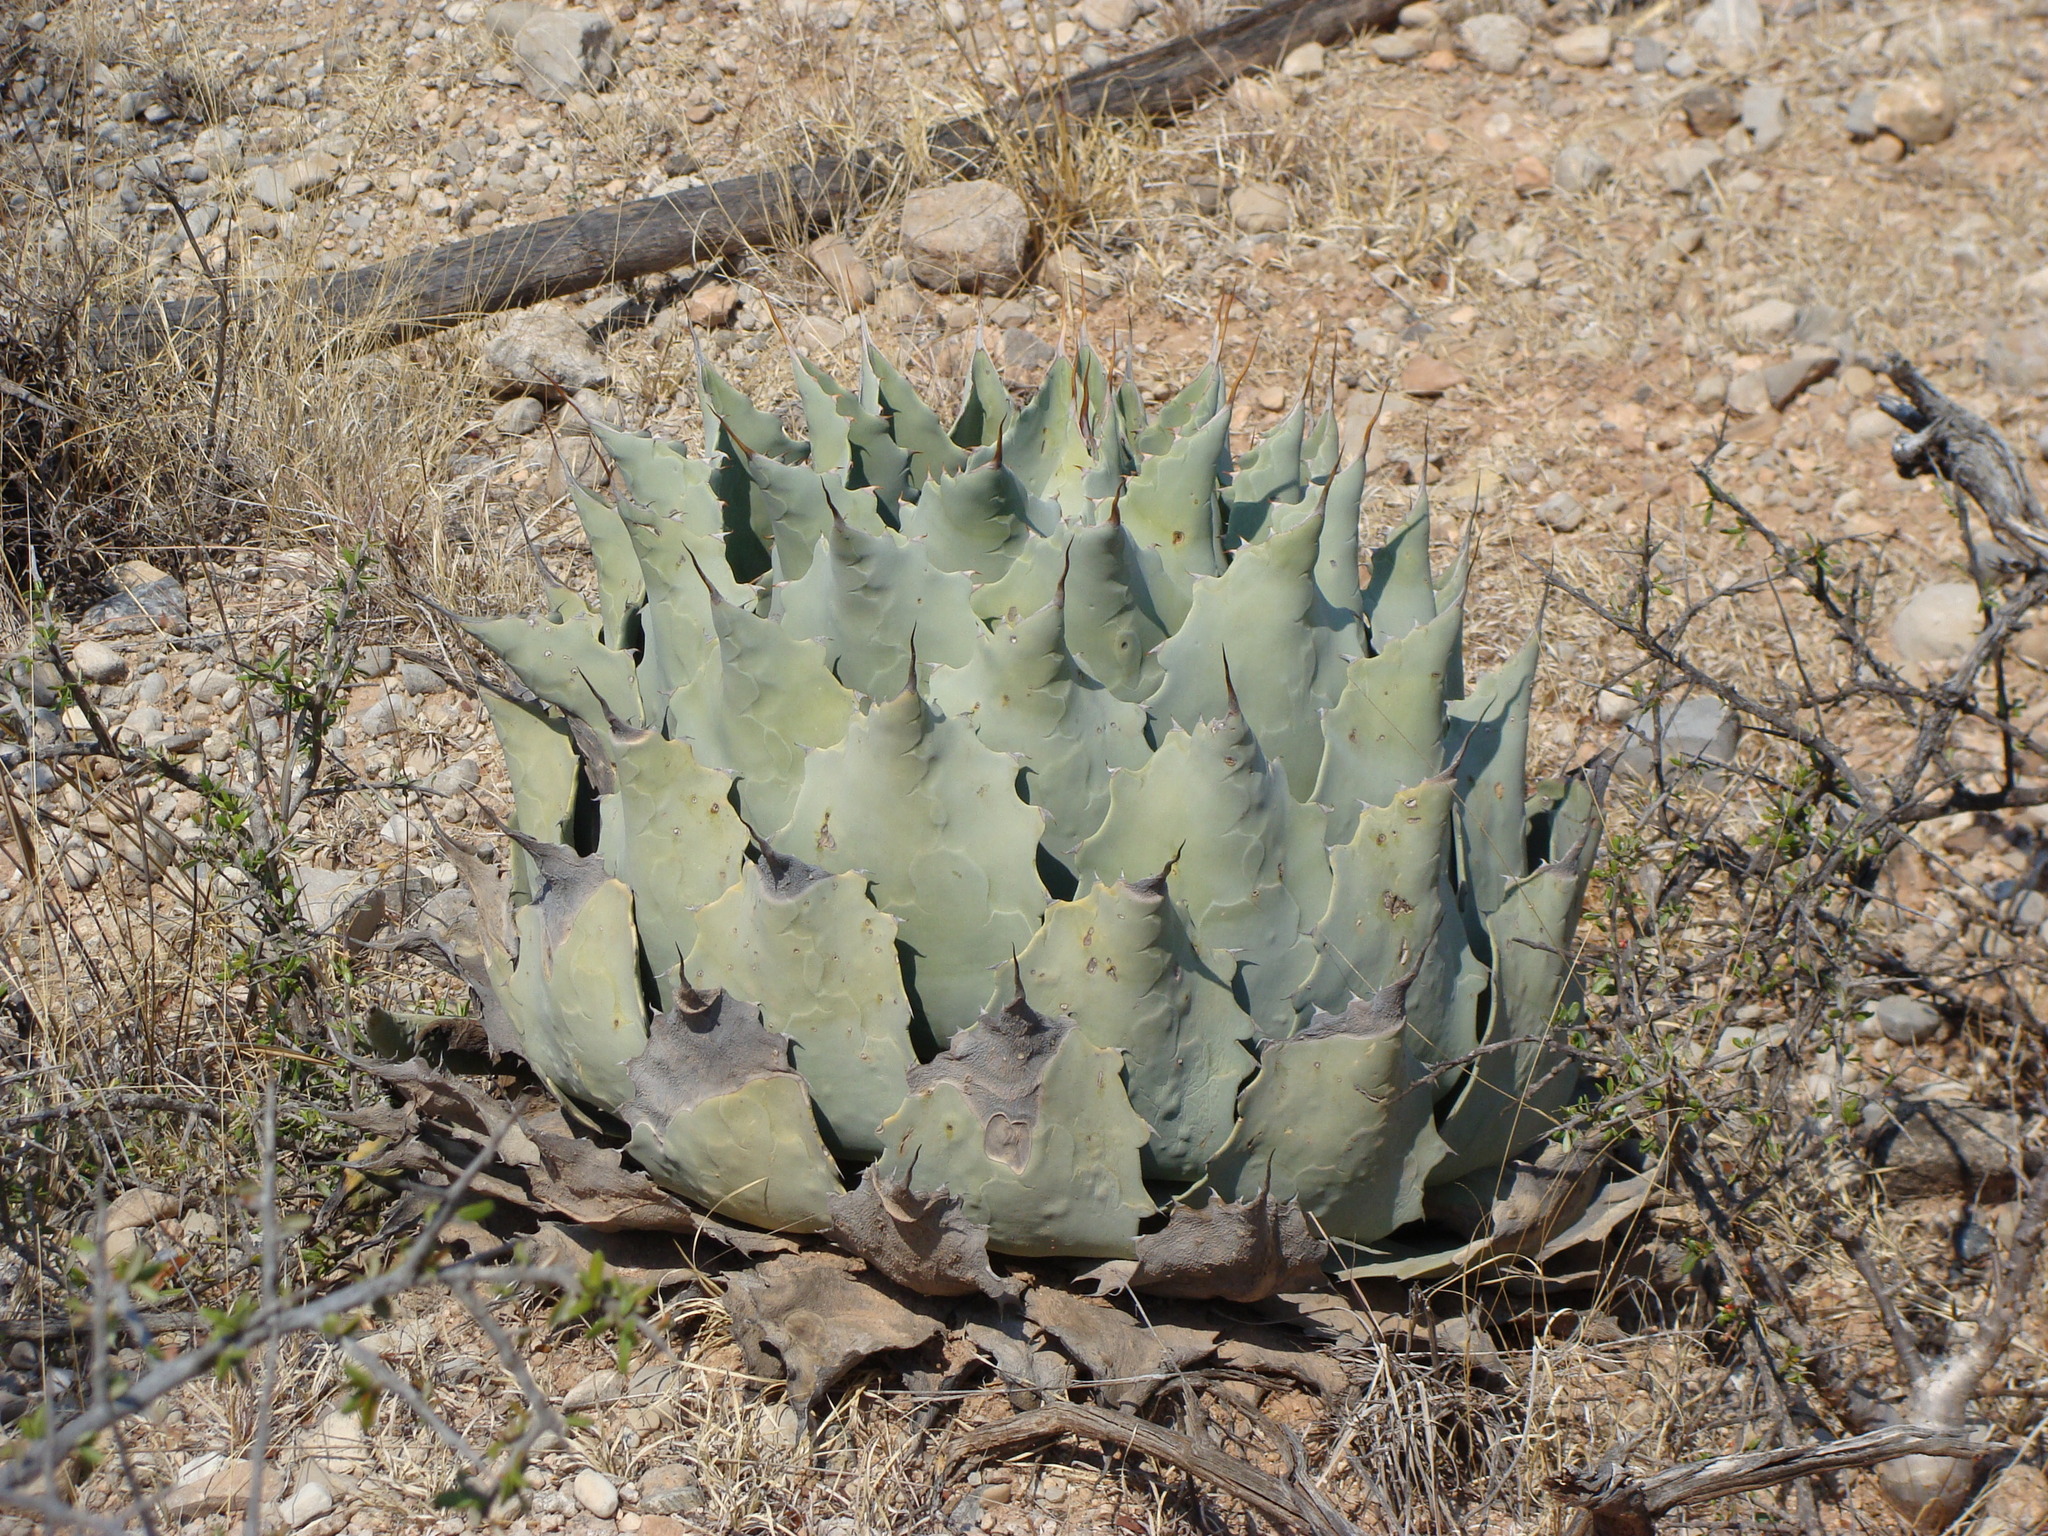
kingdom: Plantae
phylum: Tracheophyta
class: Liliopsida
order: Asparagales
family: Asparagaceae
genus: Agave
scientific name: Agave potatorum
